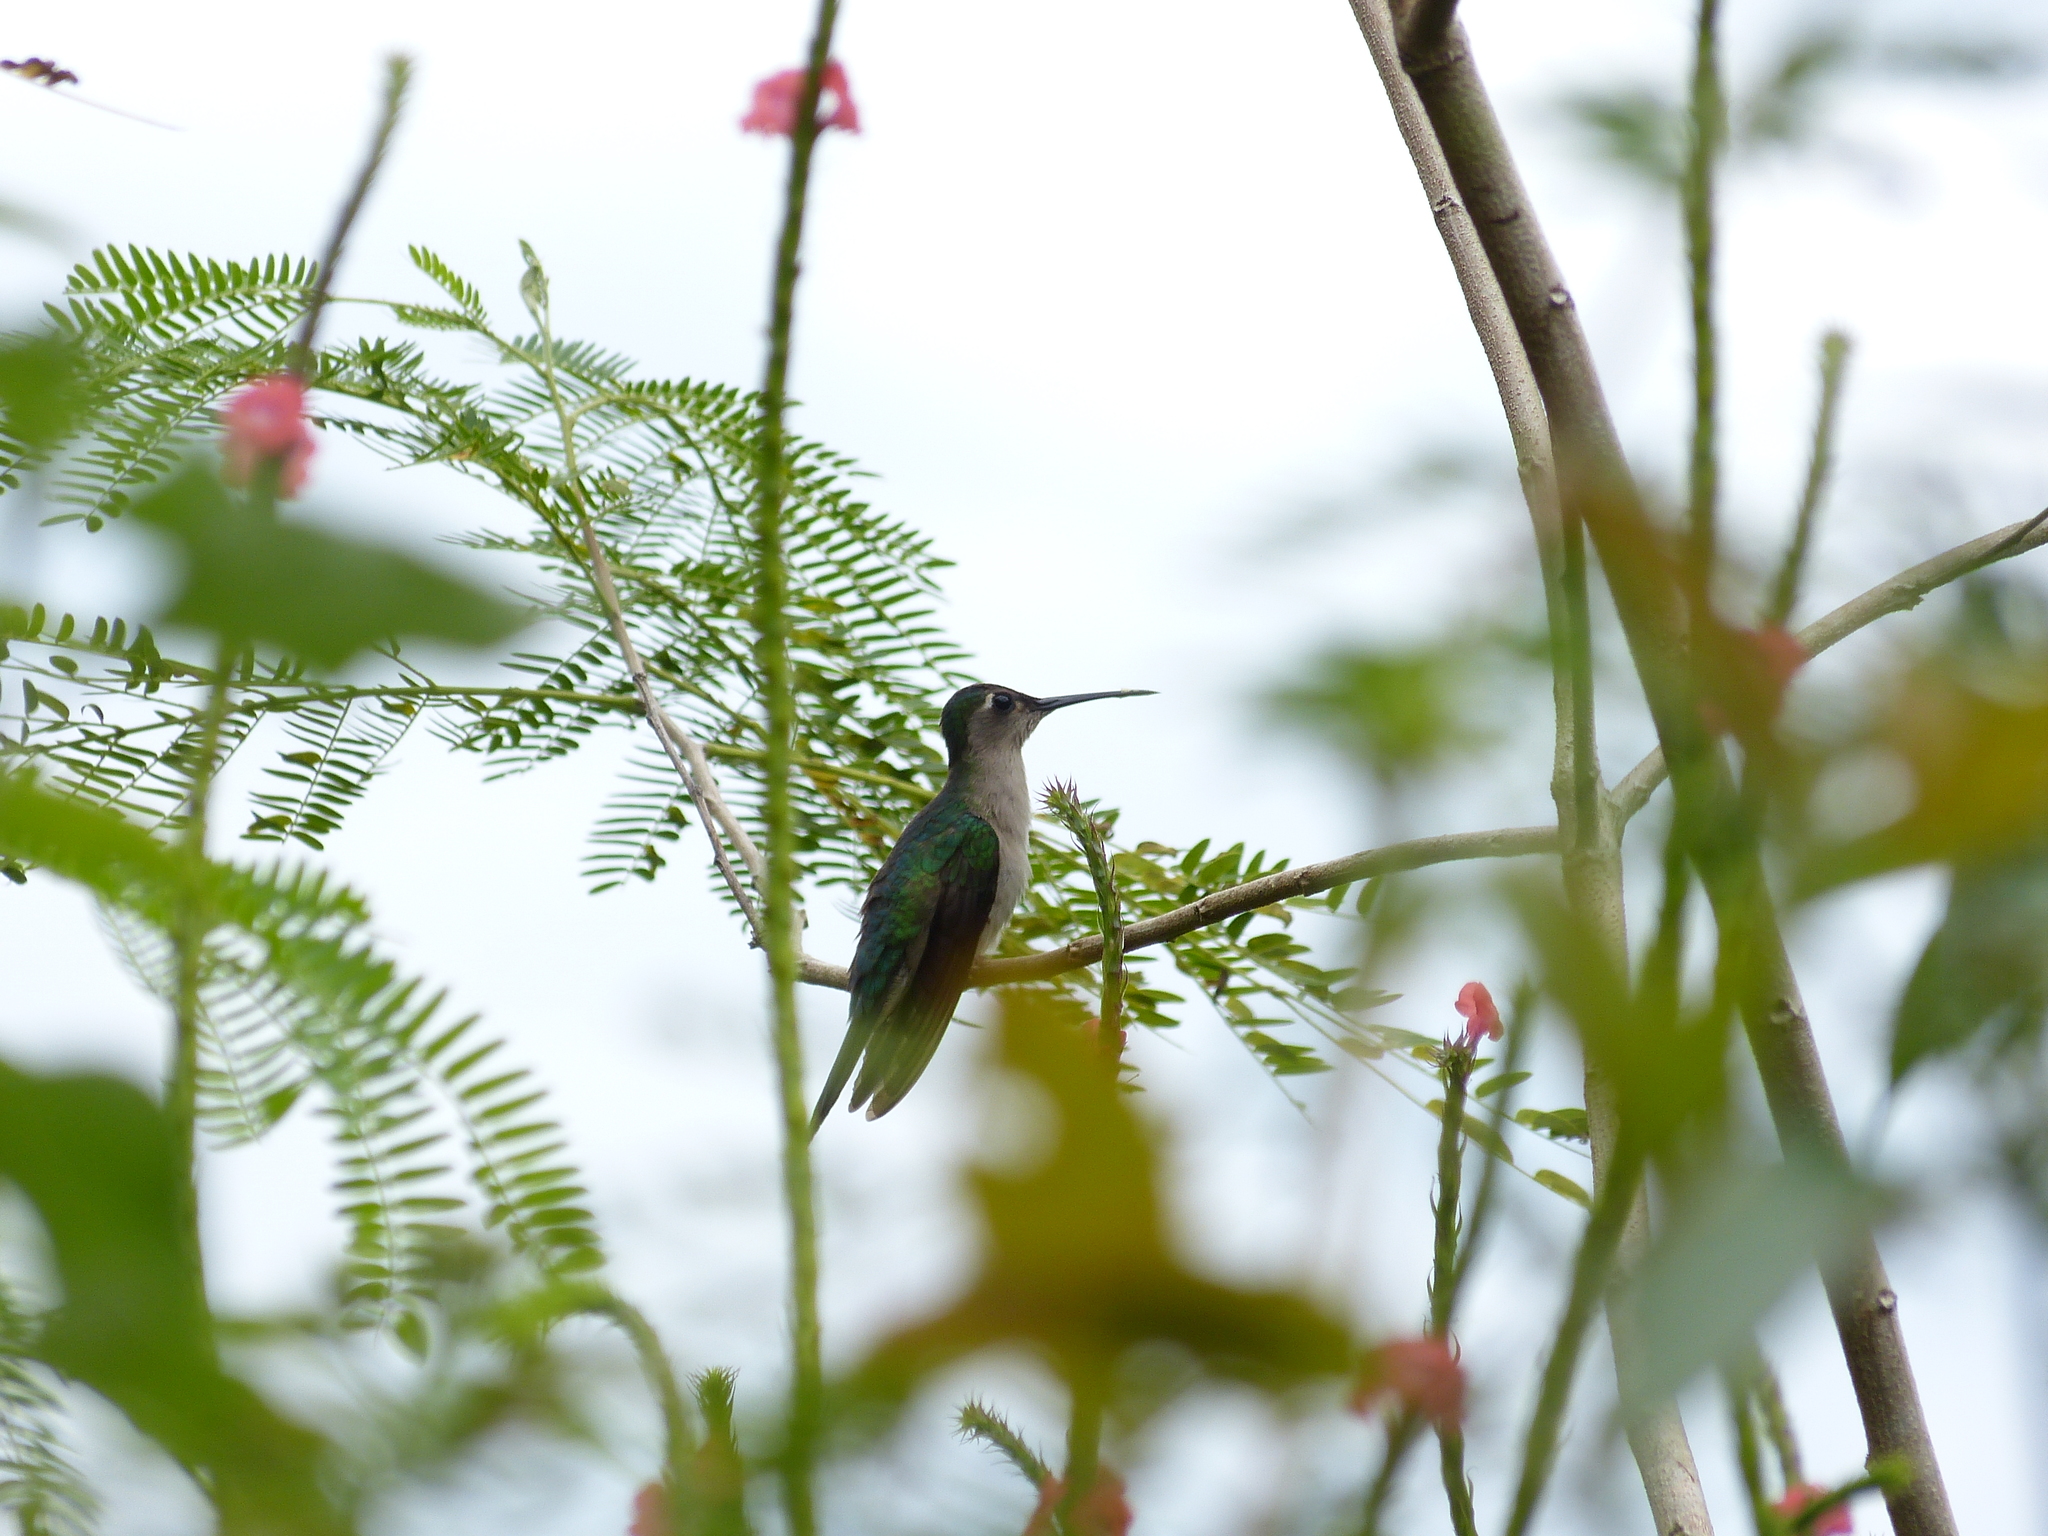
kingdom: Animalia
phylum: Chordata
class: Aves
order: Apodiformes
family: Trochilidae
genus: Pampa
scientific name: Pampa curvipennis
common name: Curve-winged sabrewing
